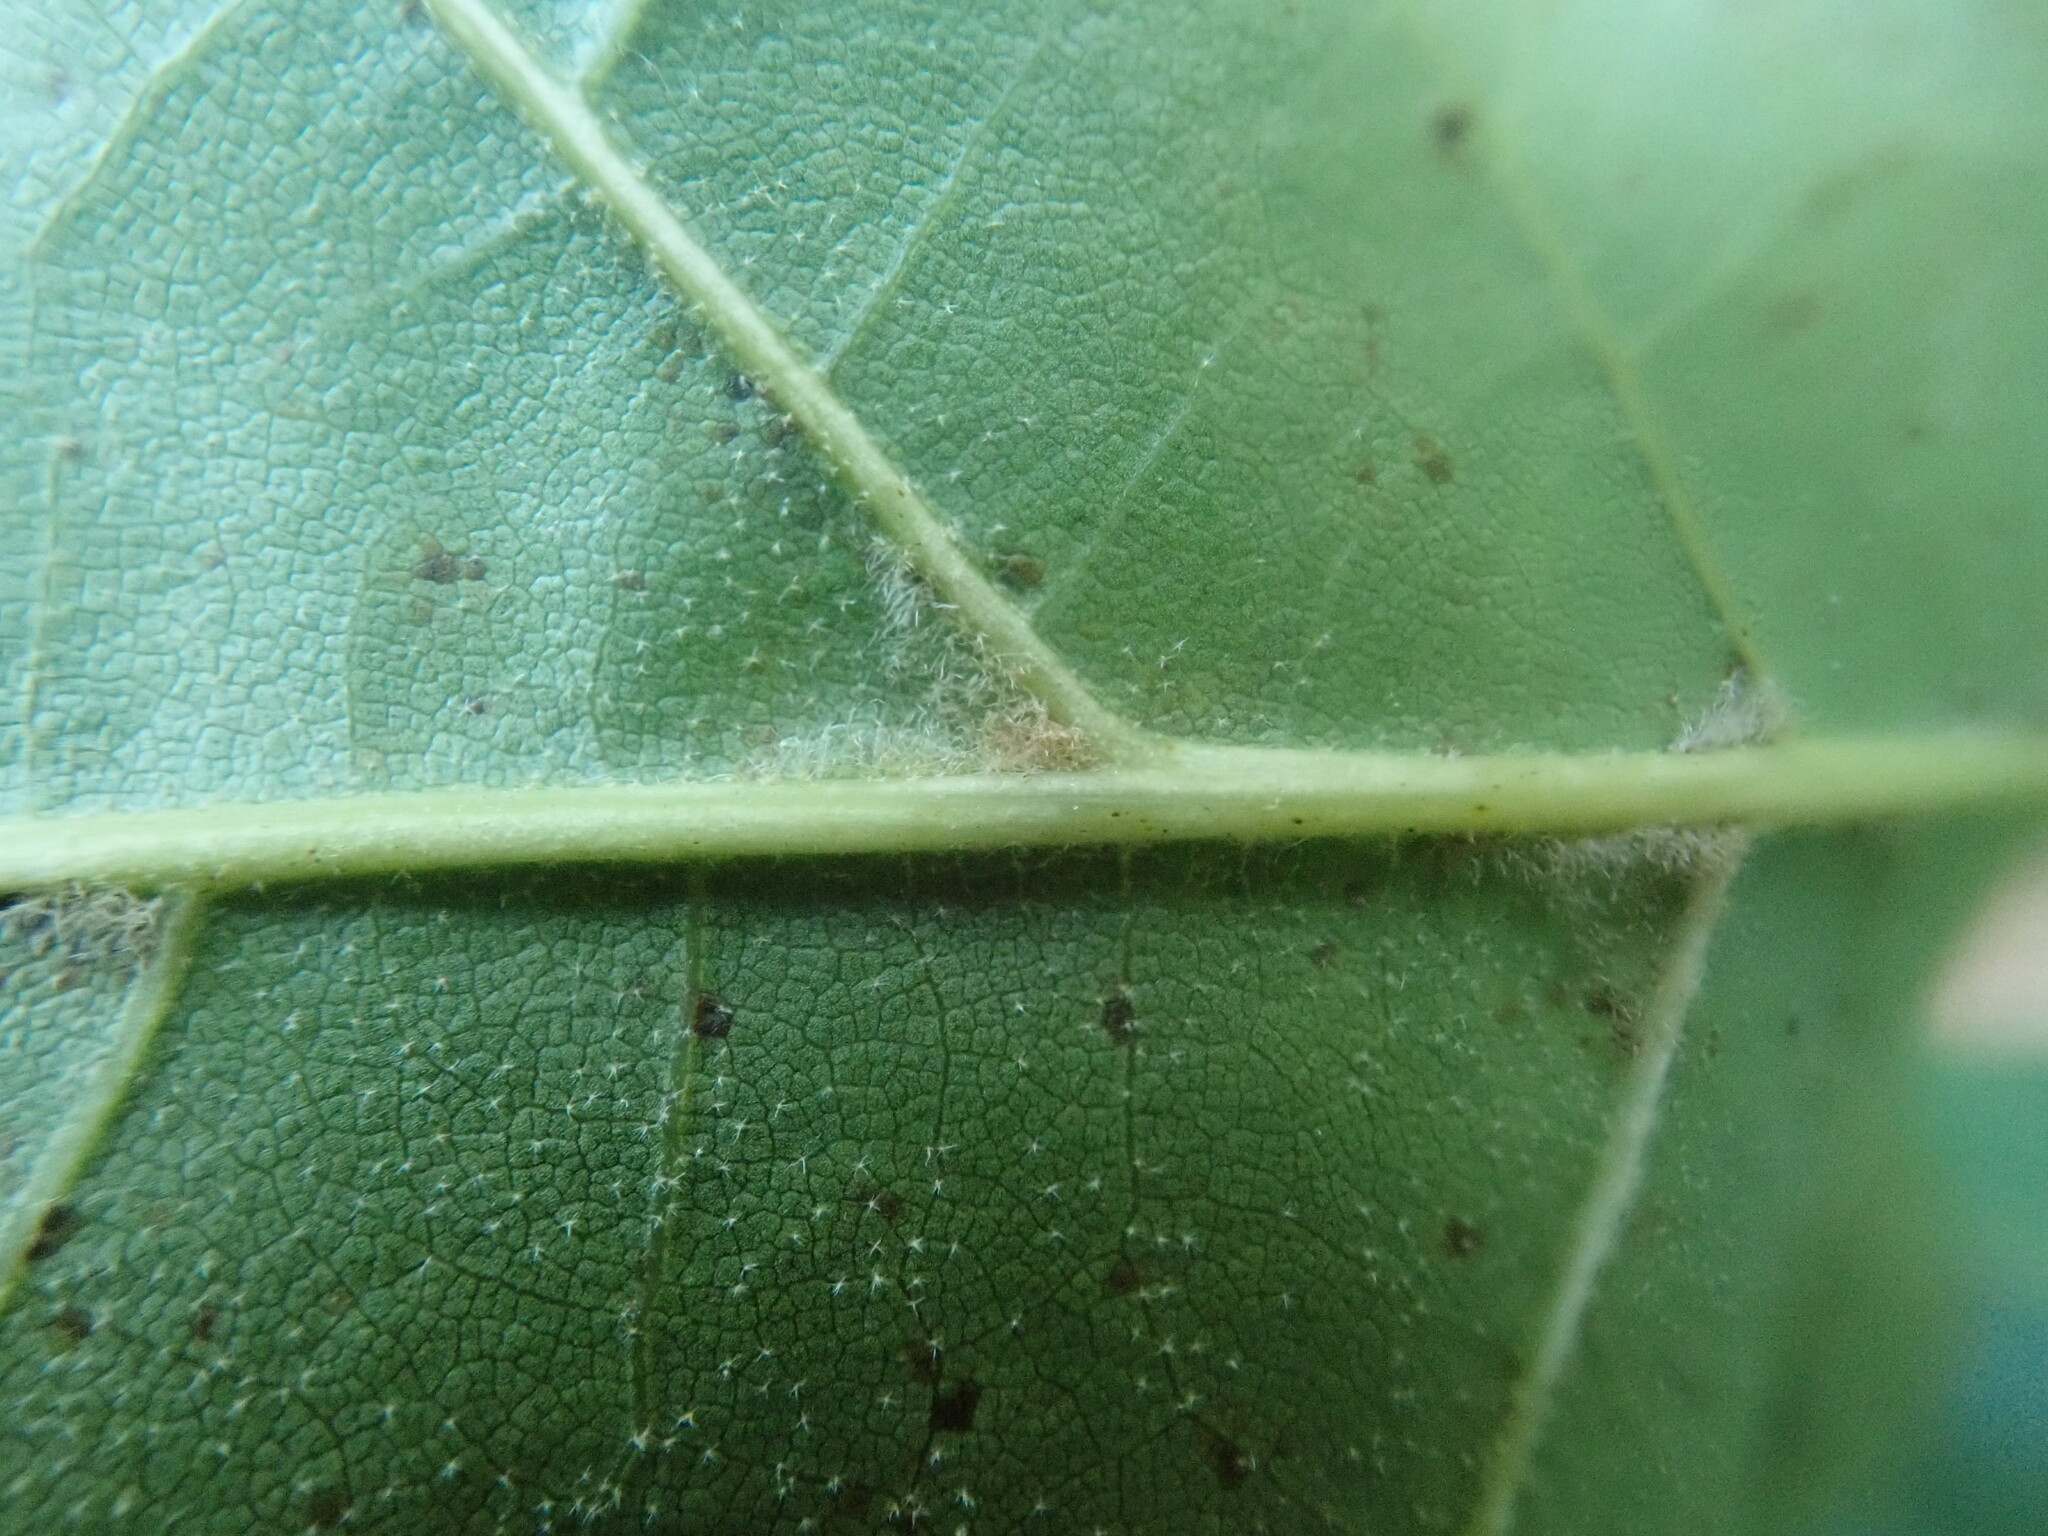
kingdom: Plantae
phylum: Tracheophyta
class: Magnoliopsida
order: Fagales
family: Fagaceae
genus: Quercus
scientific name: Quercus velutina
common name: Black oak
